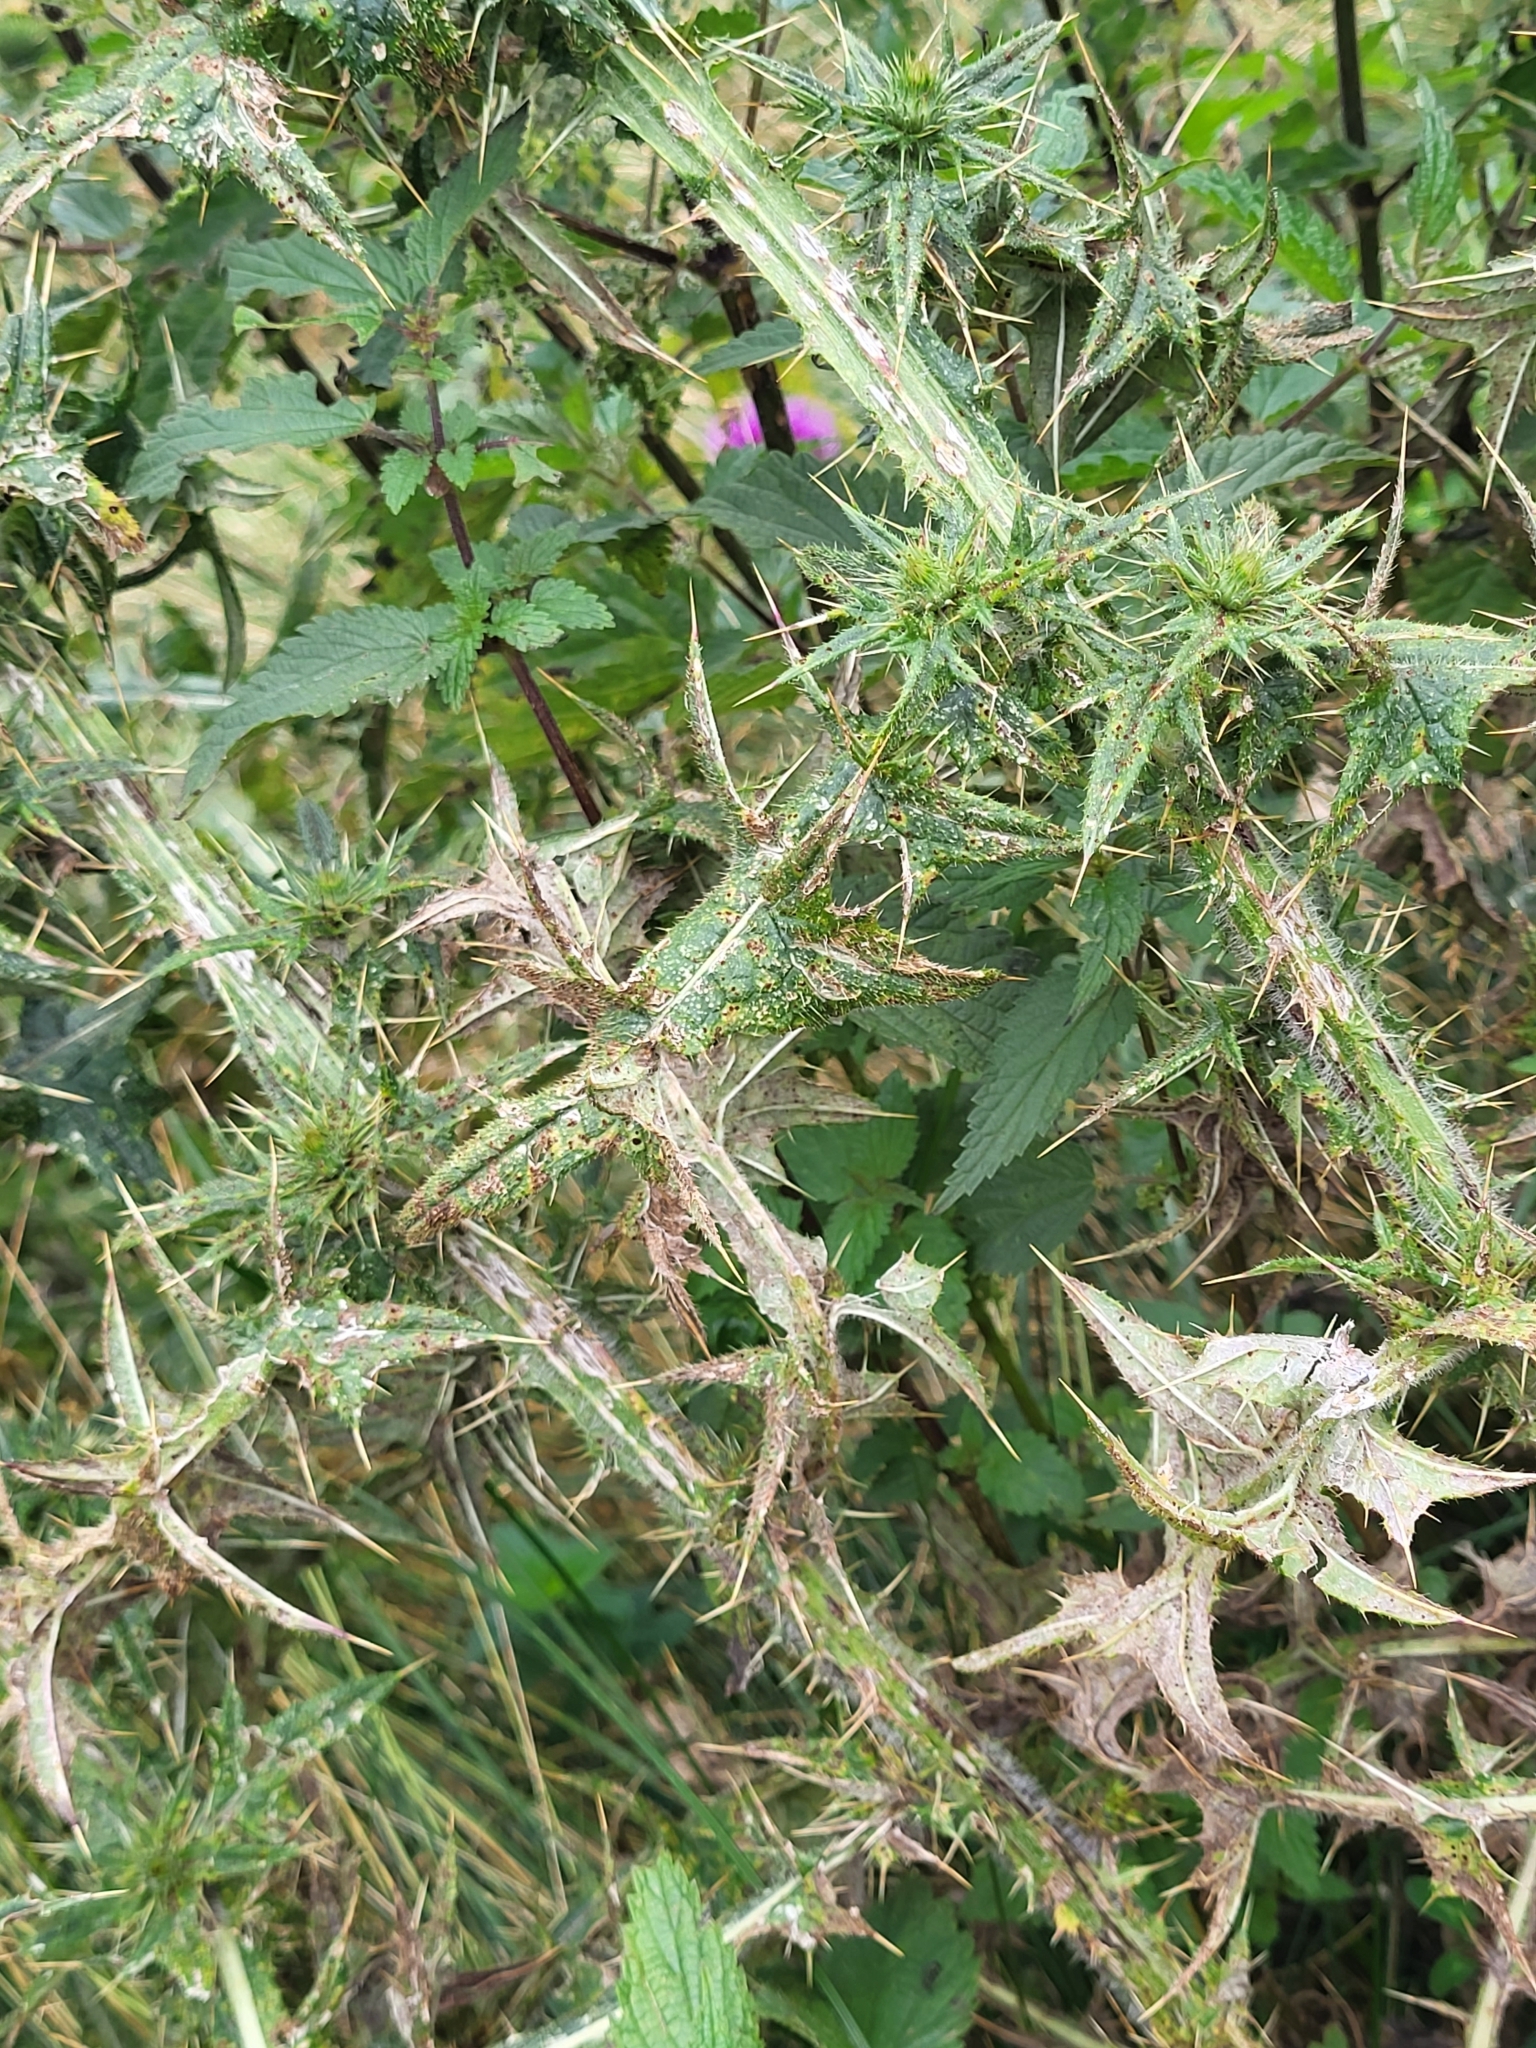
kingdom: Plantae
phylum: Tracheophyta
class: Magnoliopsida
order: Asterales
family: Asteraceae
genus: Cirsium
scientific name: Cirsium vulgare
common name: Bull thistle
